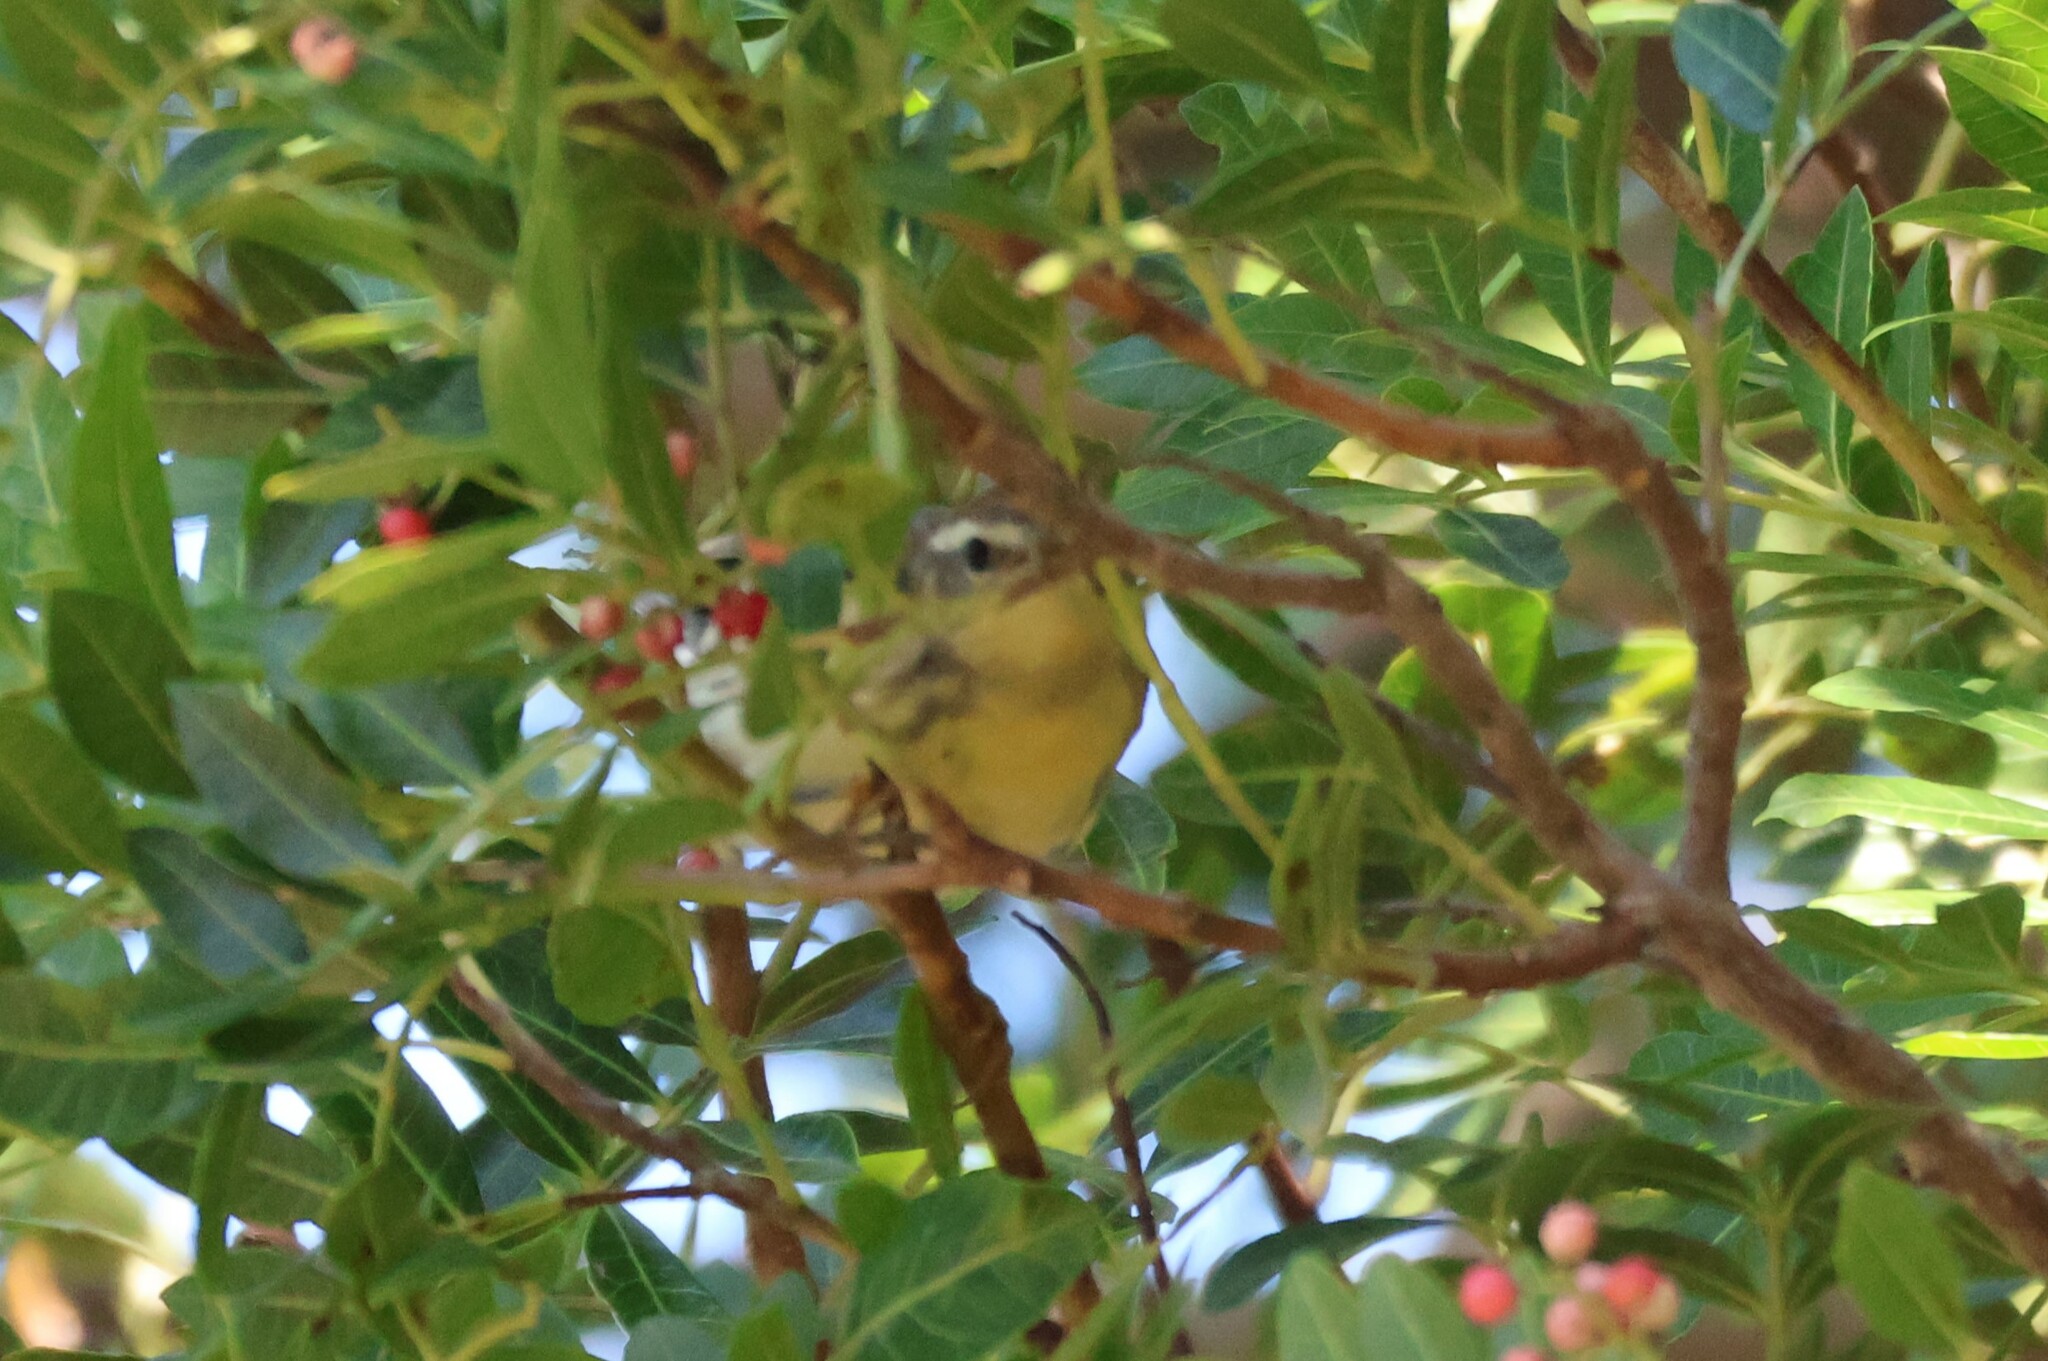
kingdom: Animalia
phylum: Chordata
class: Aves
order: Passeriformes
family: Parulidae
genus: Setophaga
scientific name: Setophaga fusca
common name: Blackburnian warbler
